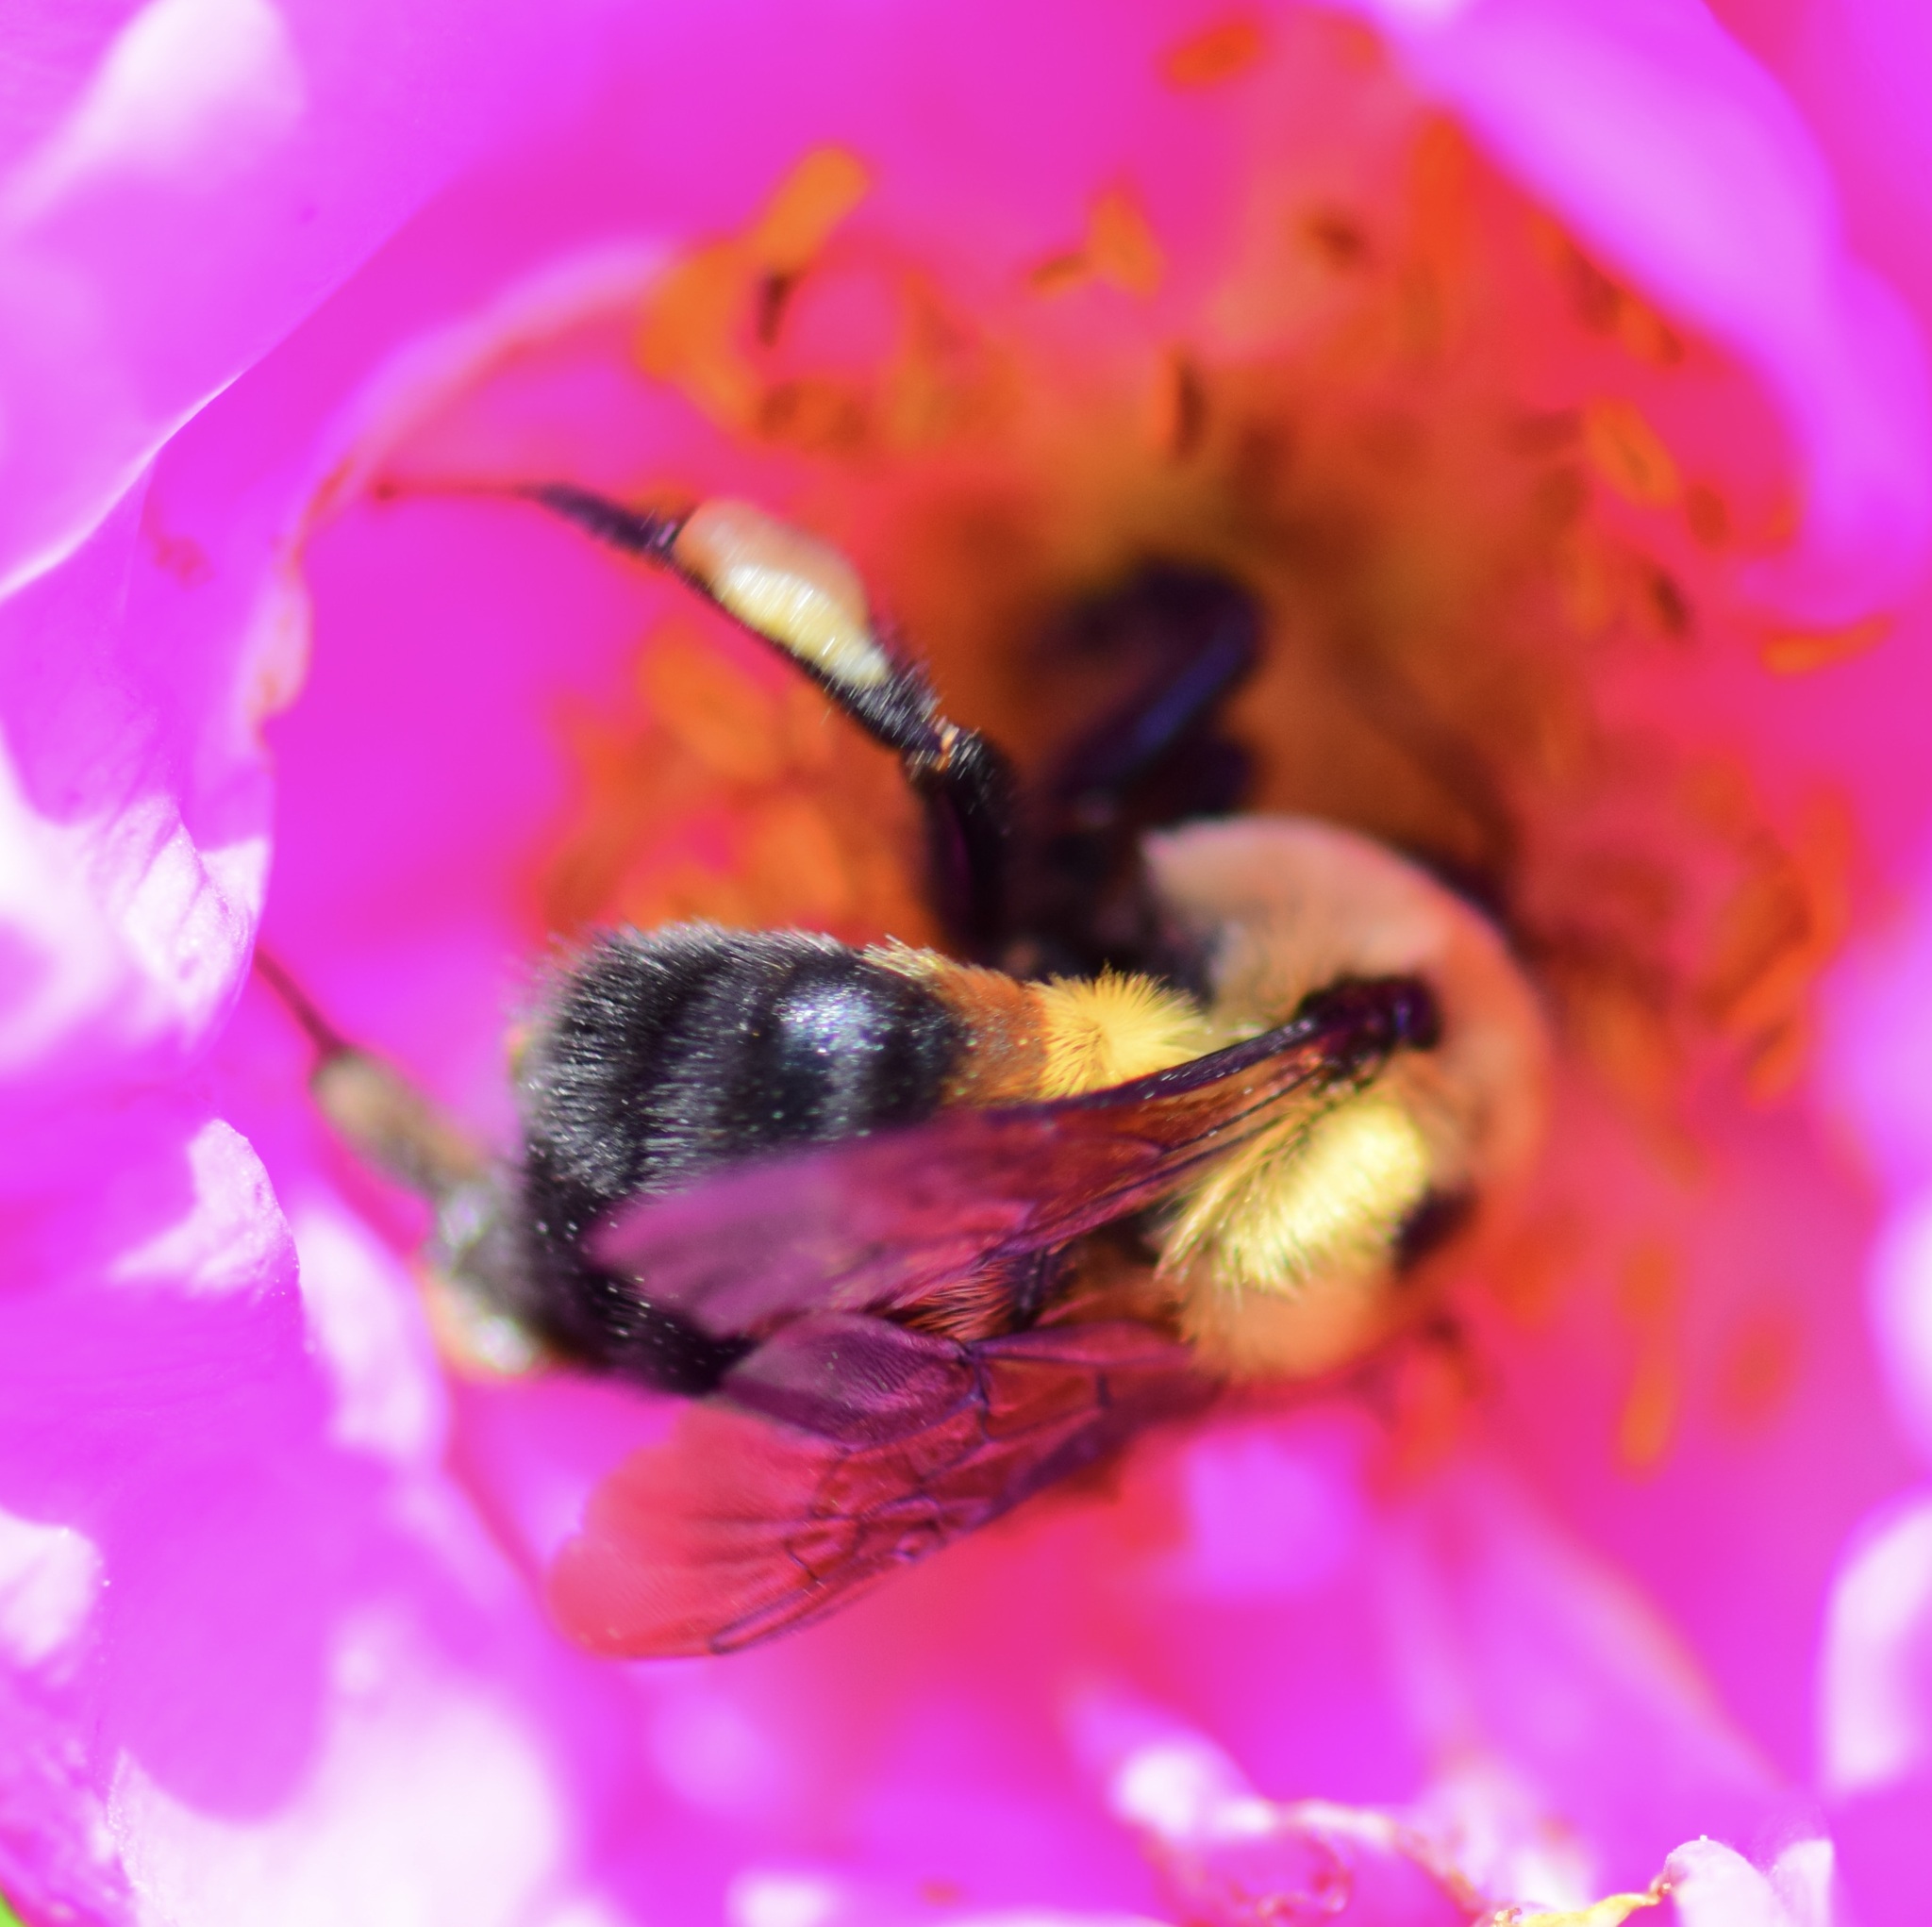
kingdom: Animalia
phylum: Arthropoda
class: Insecta
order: Hymenoptera
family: Apidae
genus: Bombus
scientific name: Bombus griseocollis
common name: Brown-belted bumble bee
